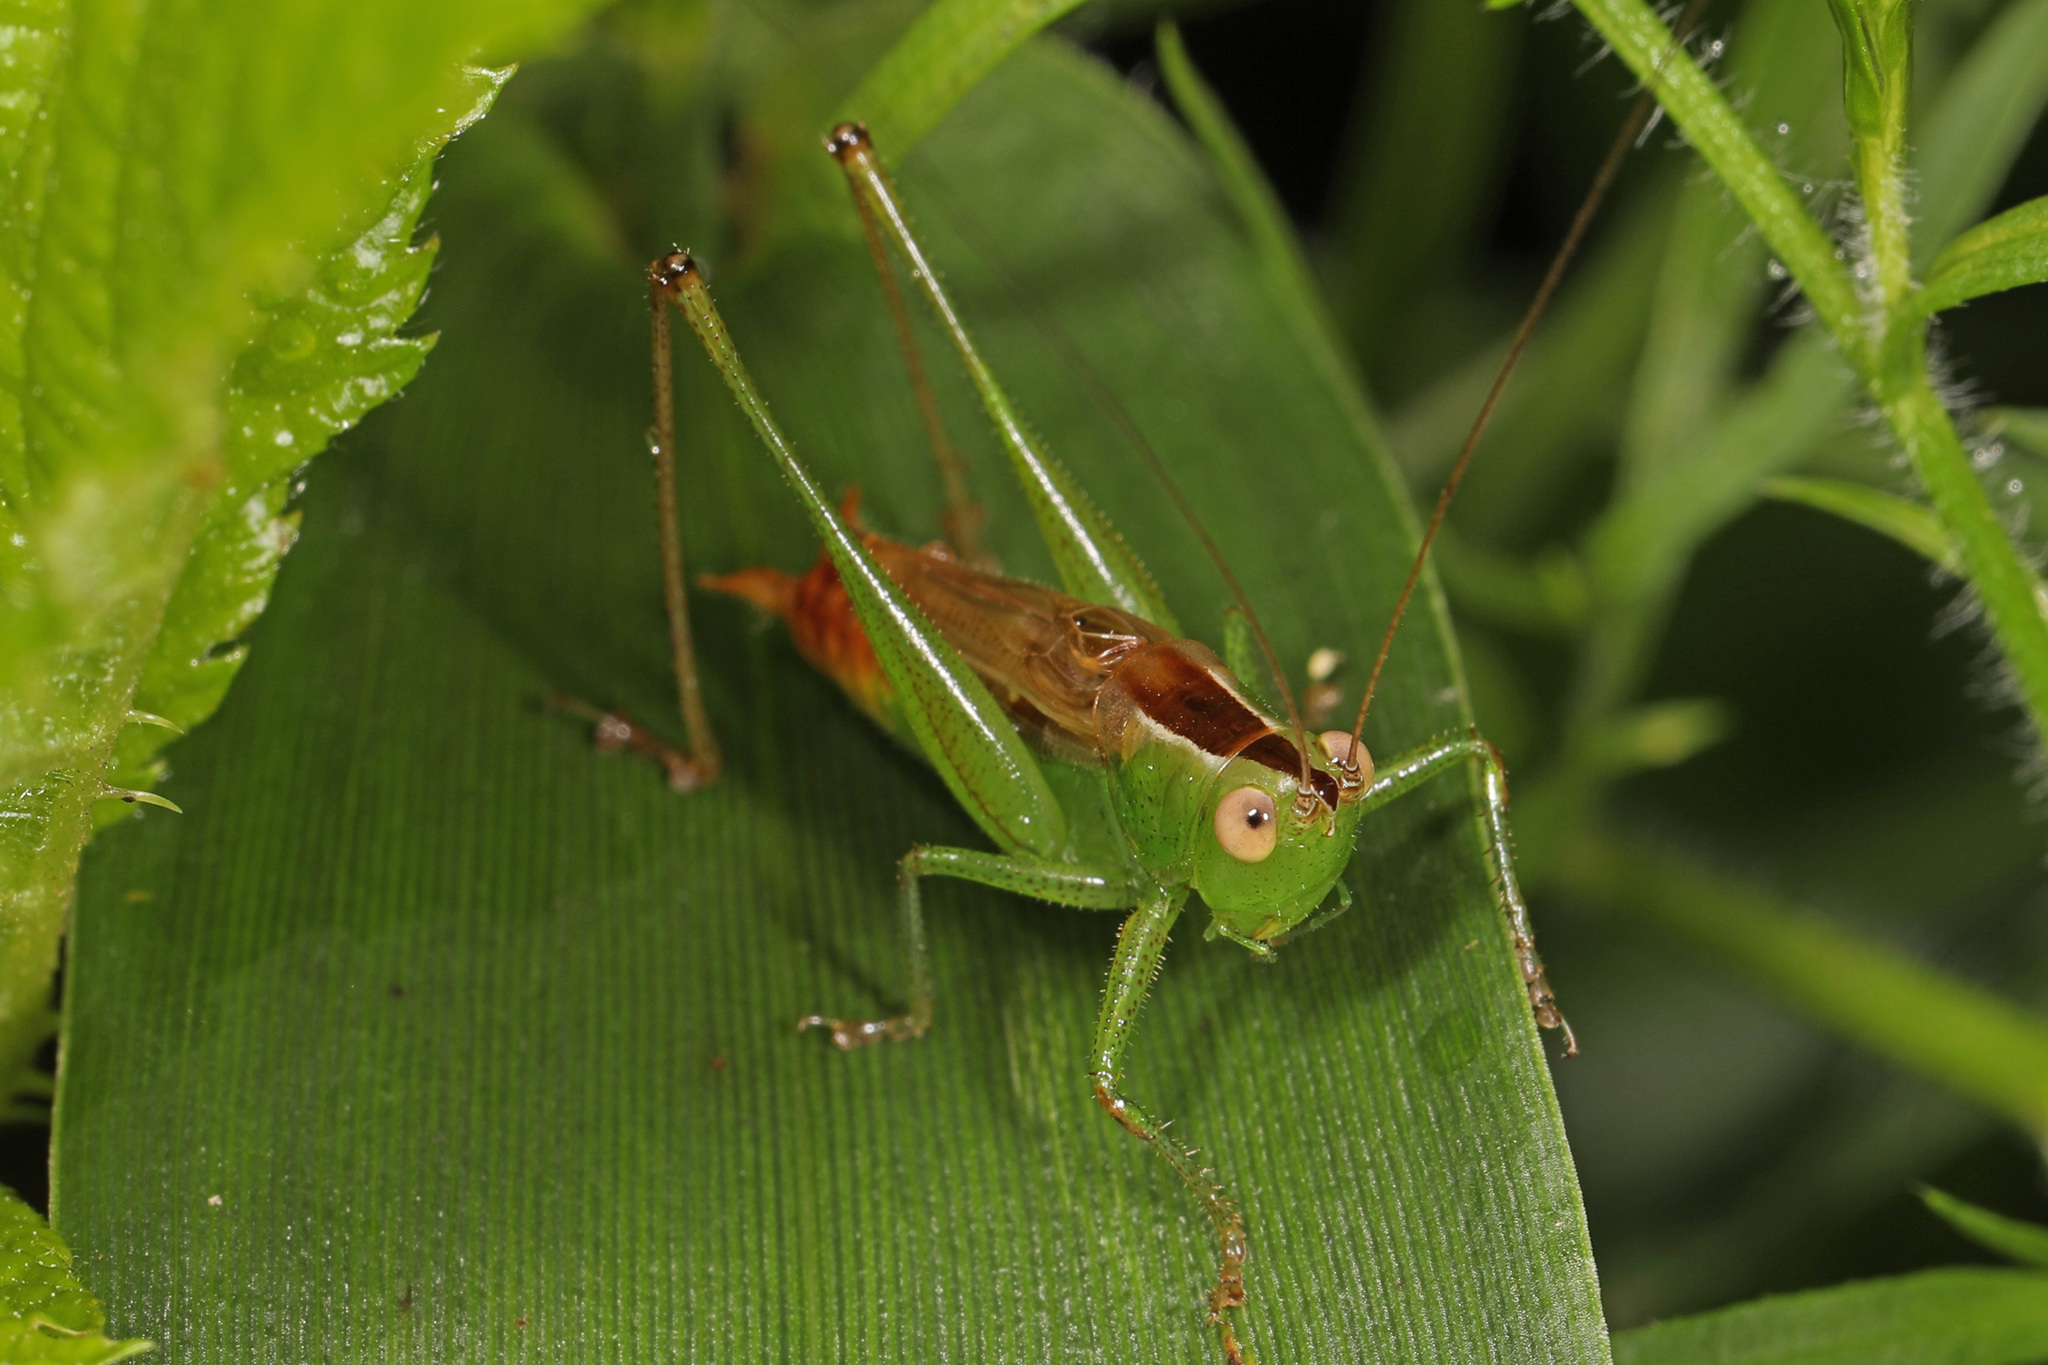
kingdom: Animalia
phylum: Arthropoda
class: Insecta
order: Orthoptera
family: Tettigoniidae
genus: Conocephalus
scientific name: Conocephalus brevipennis
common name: Short-winged meadow katydid
